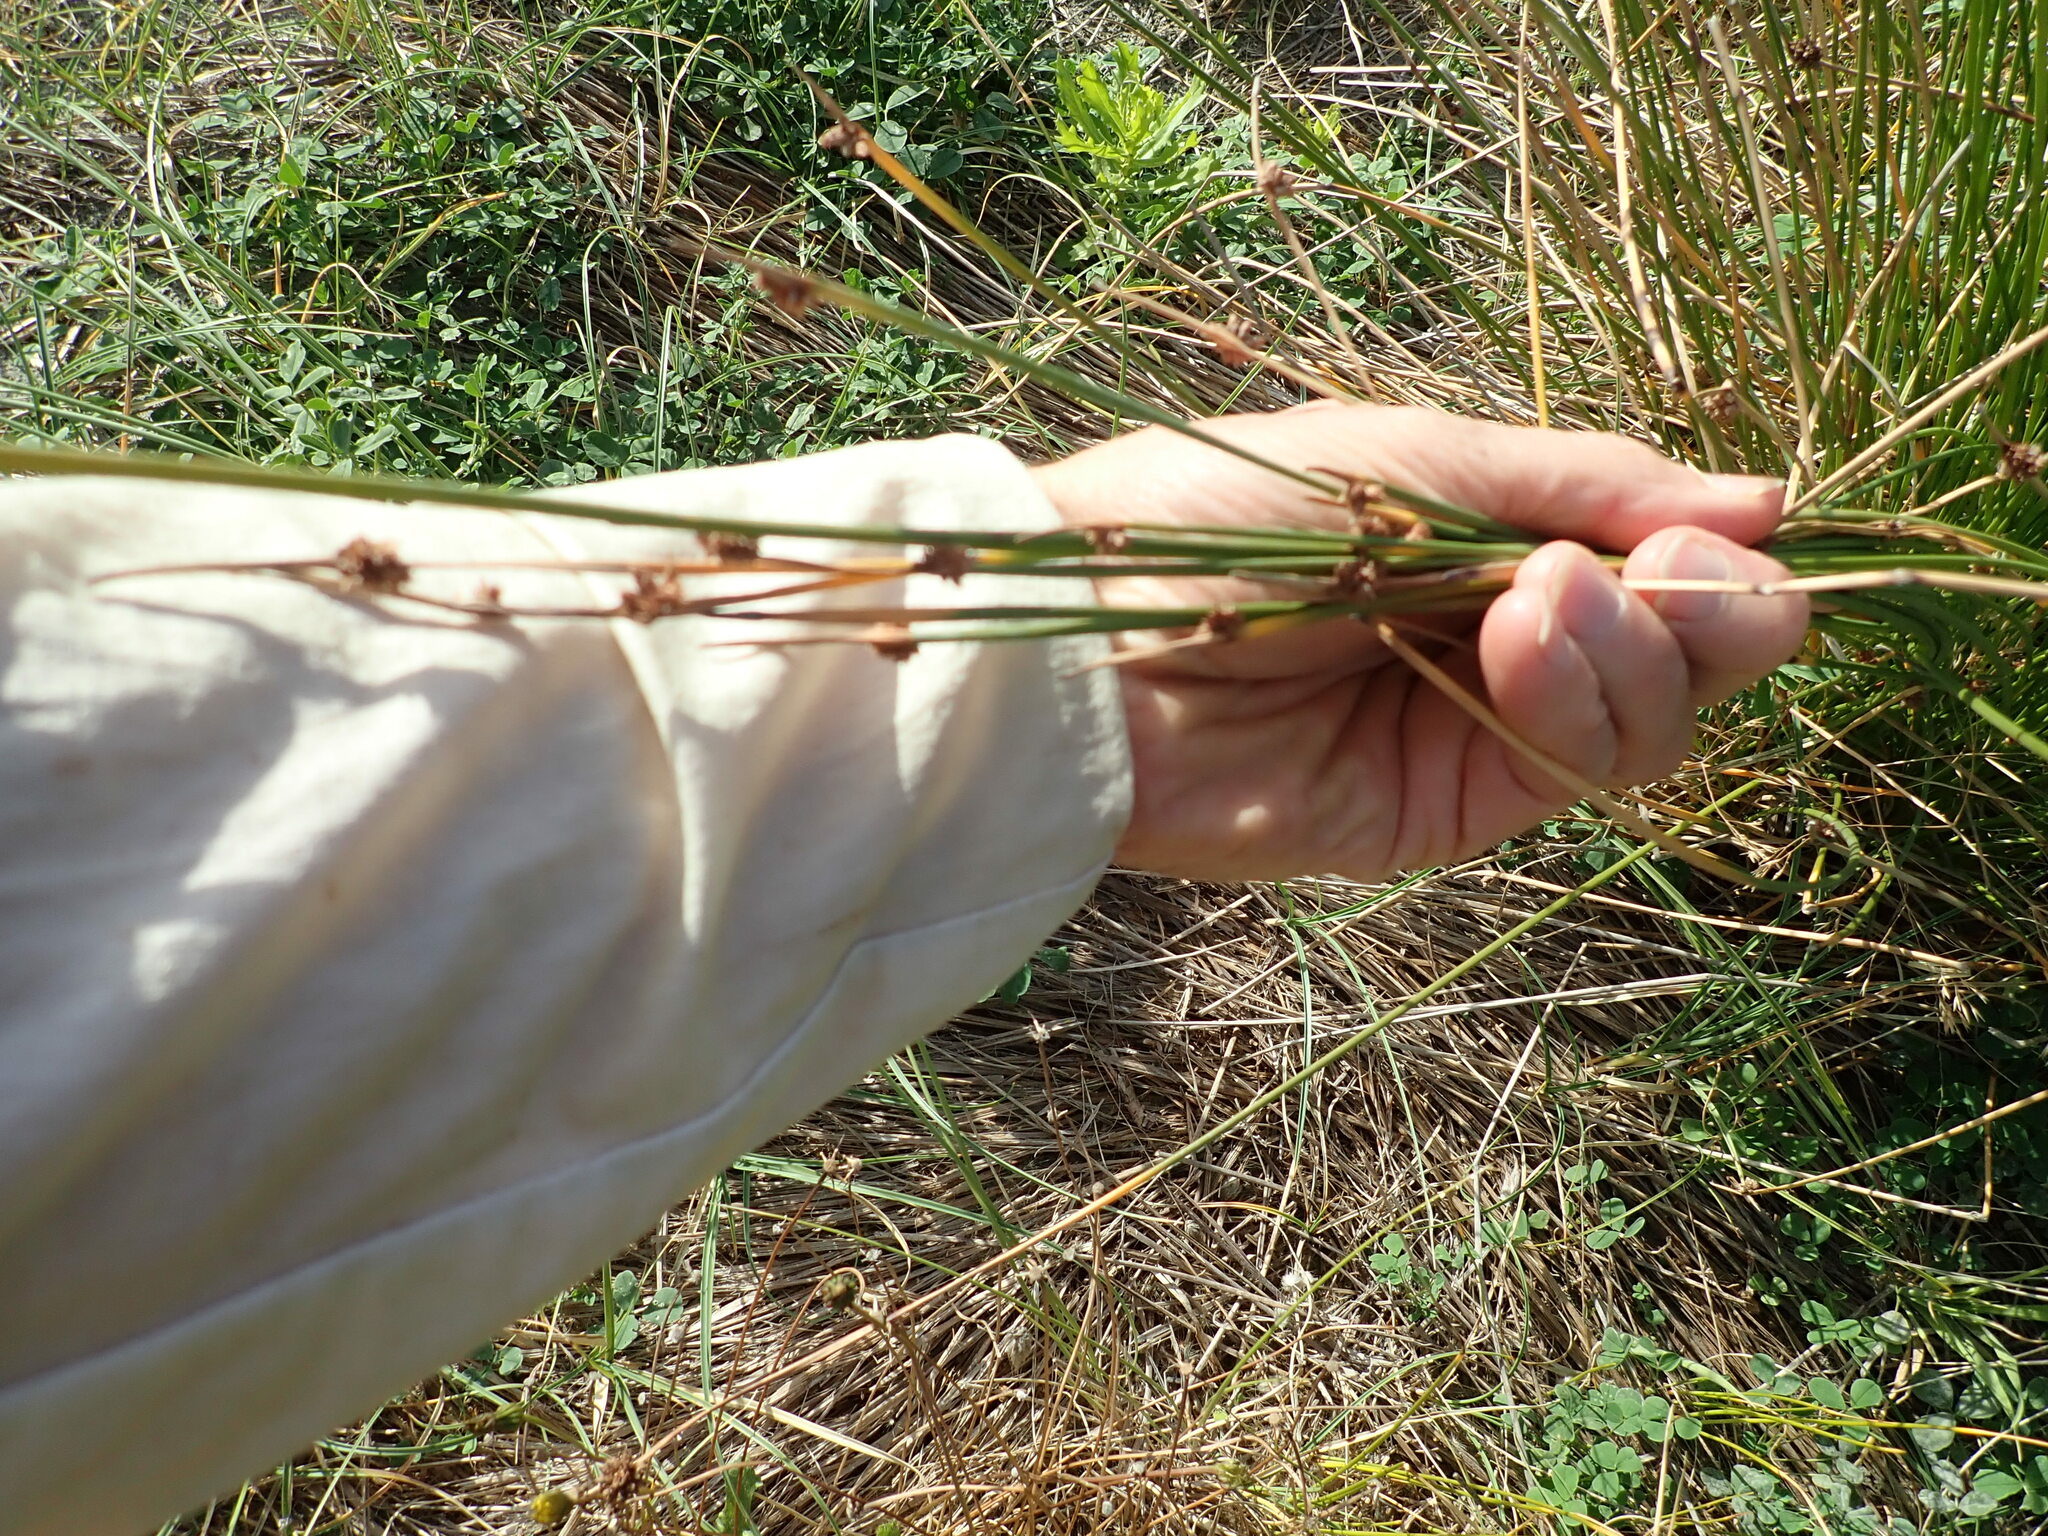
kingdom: Plantae
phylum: Tracheophyta
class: Liliopsida
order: Poales
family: Cyperaceae
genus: Ficinia
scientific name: Ficinia nodosa
